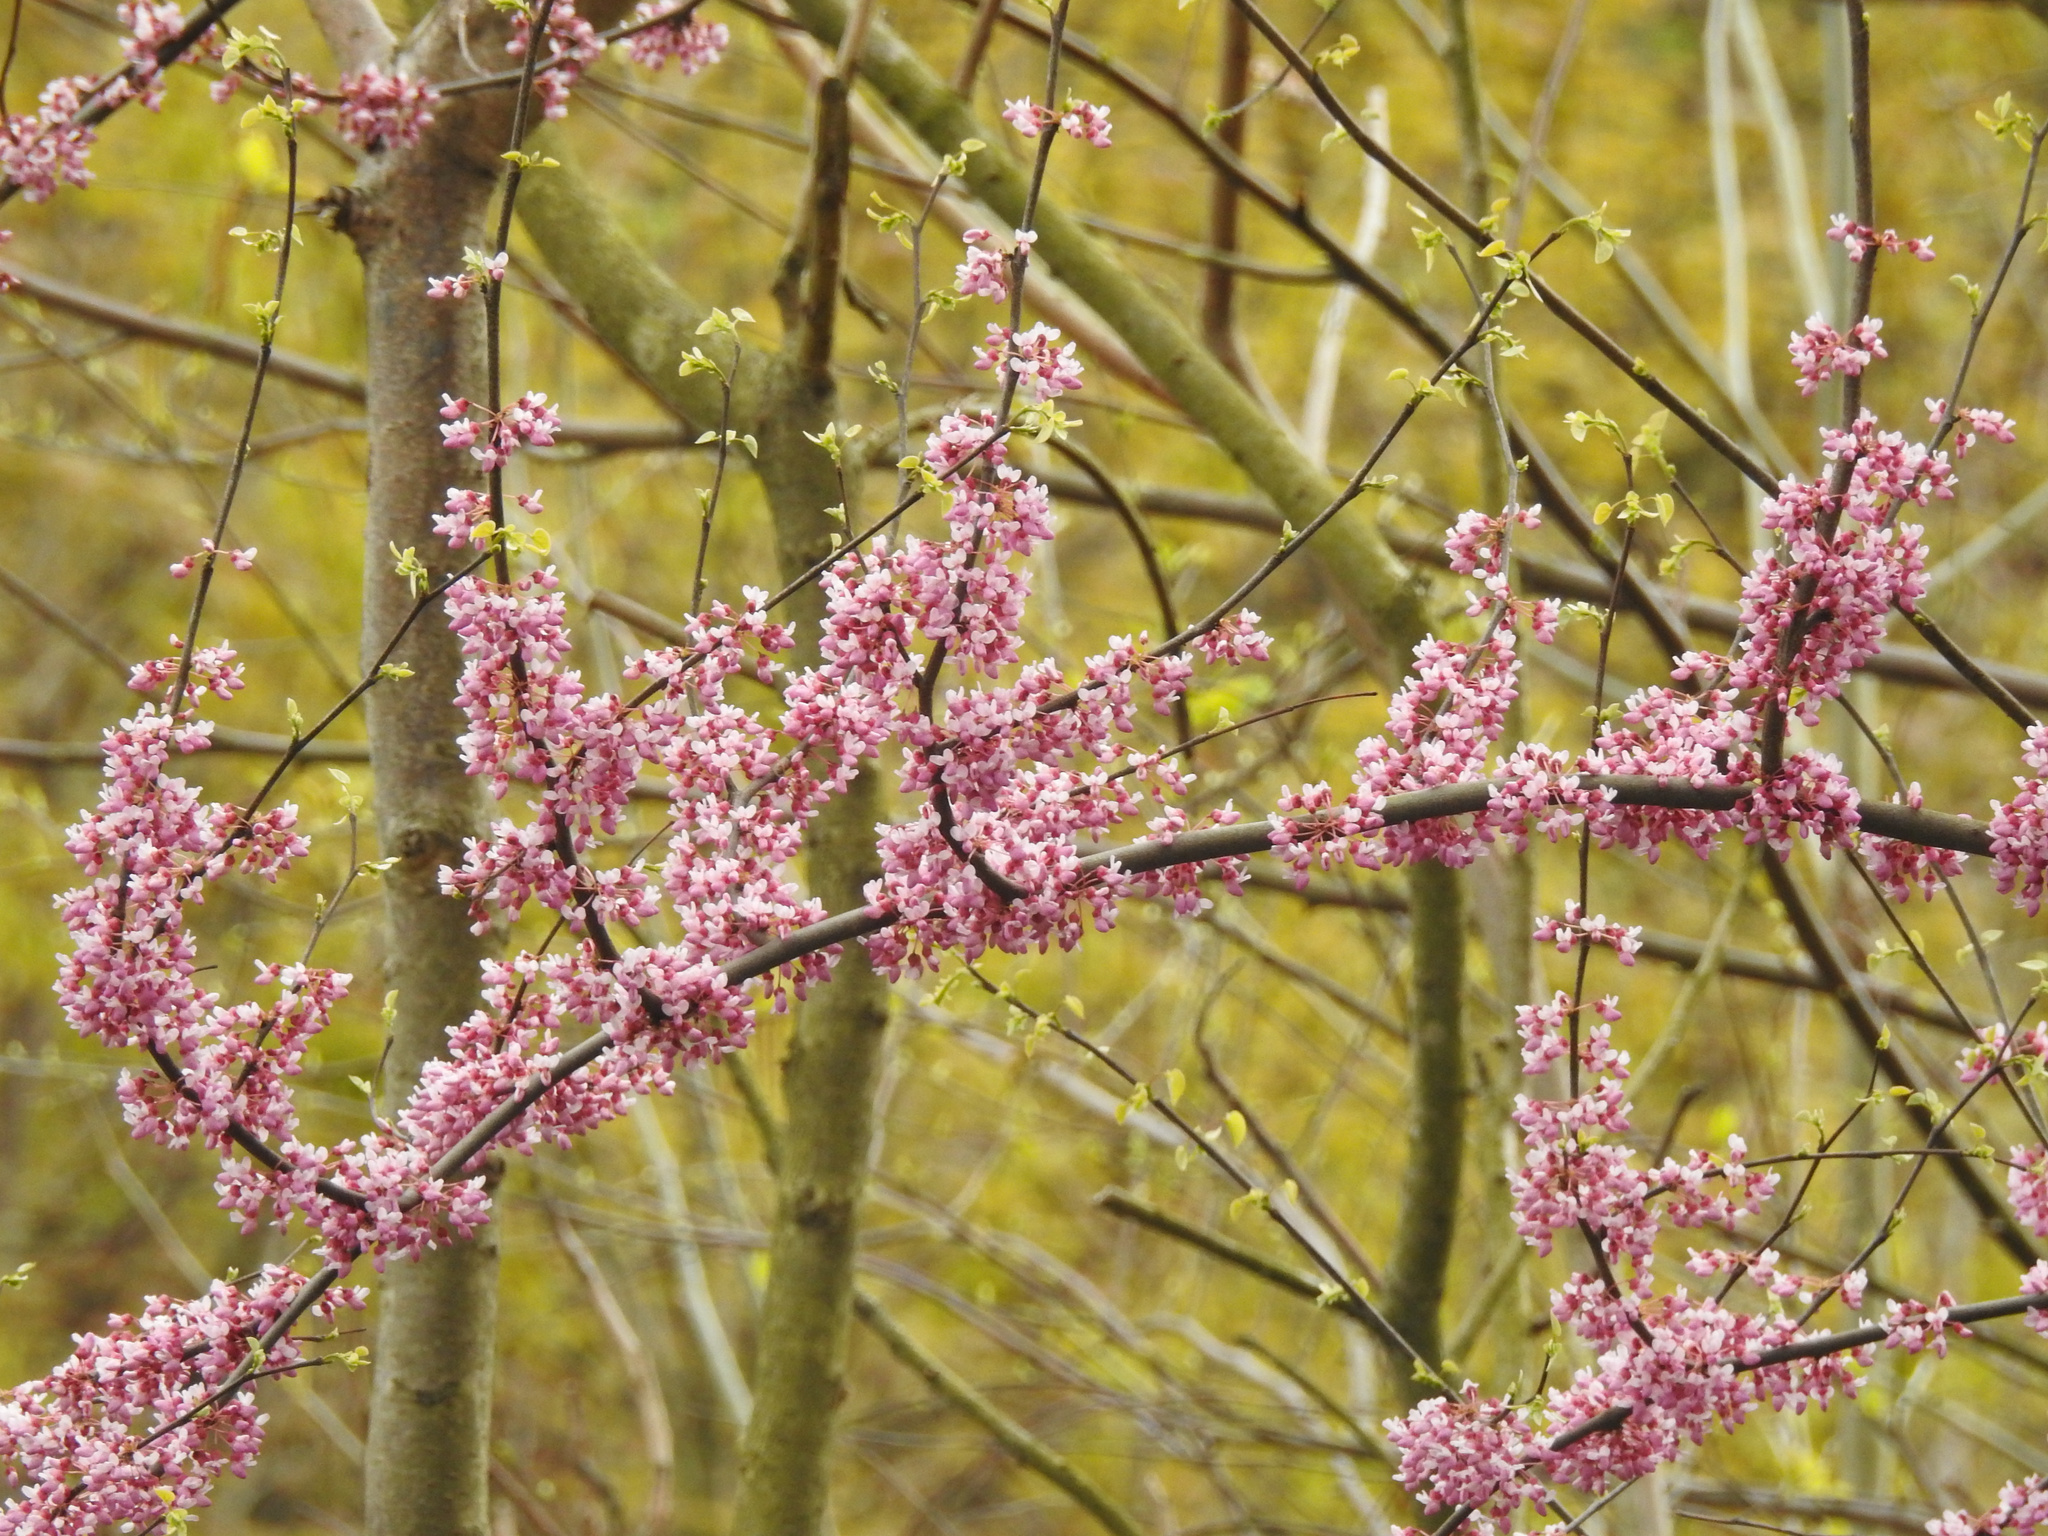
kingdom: Plantae
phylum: Tracheophyta
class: Magnoliopsida
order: Fabales
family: Fabaceae
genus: Cercis
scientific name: Cercis canadensis
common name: Eastern redbud
